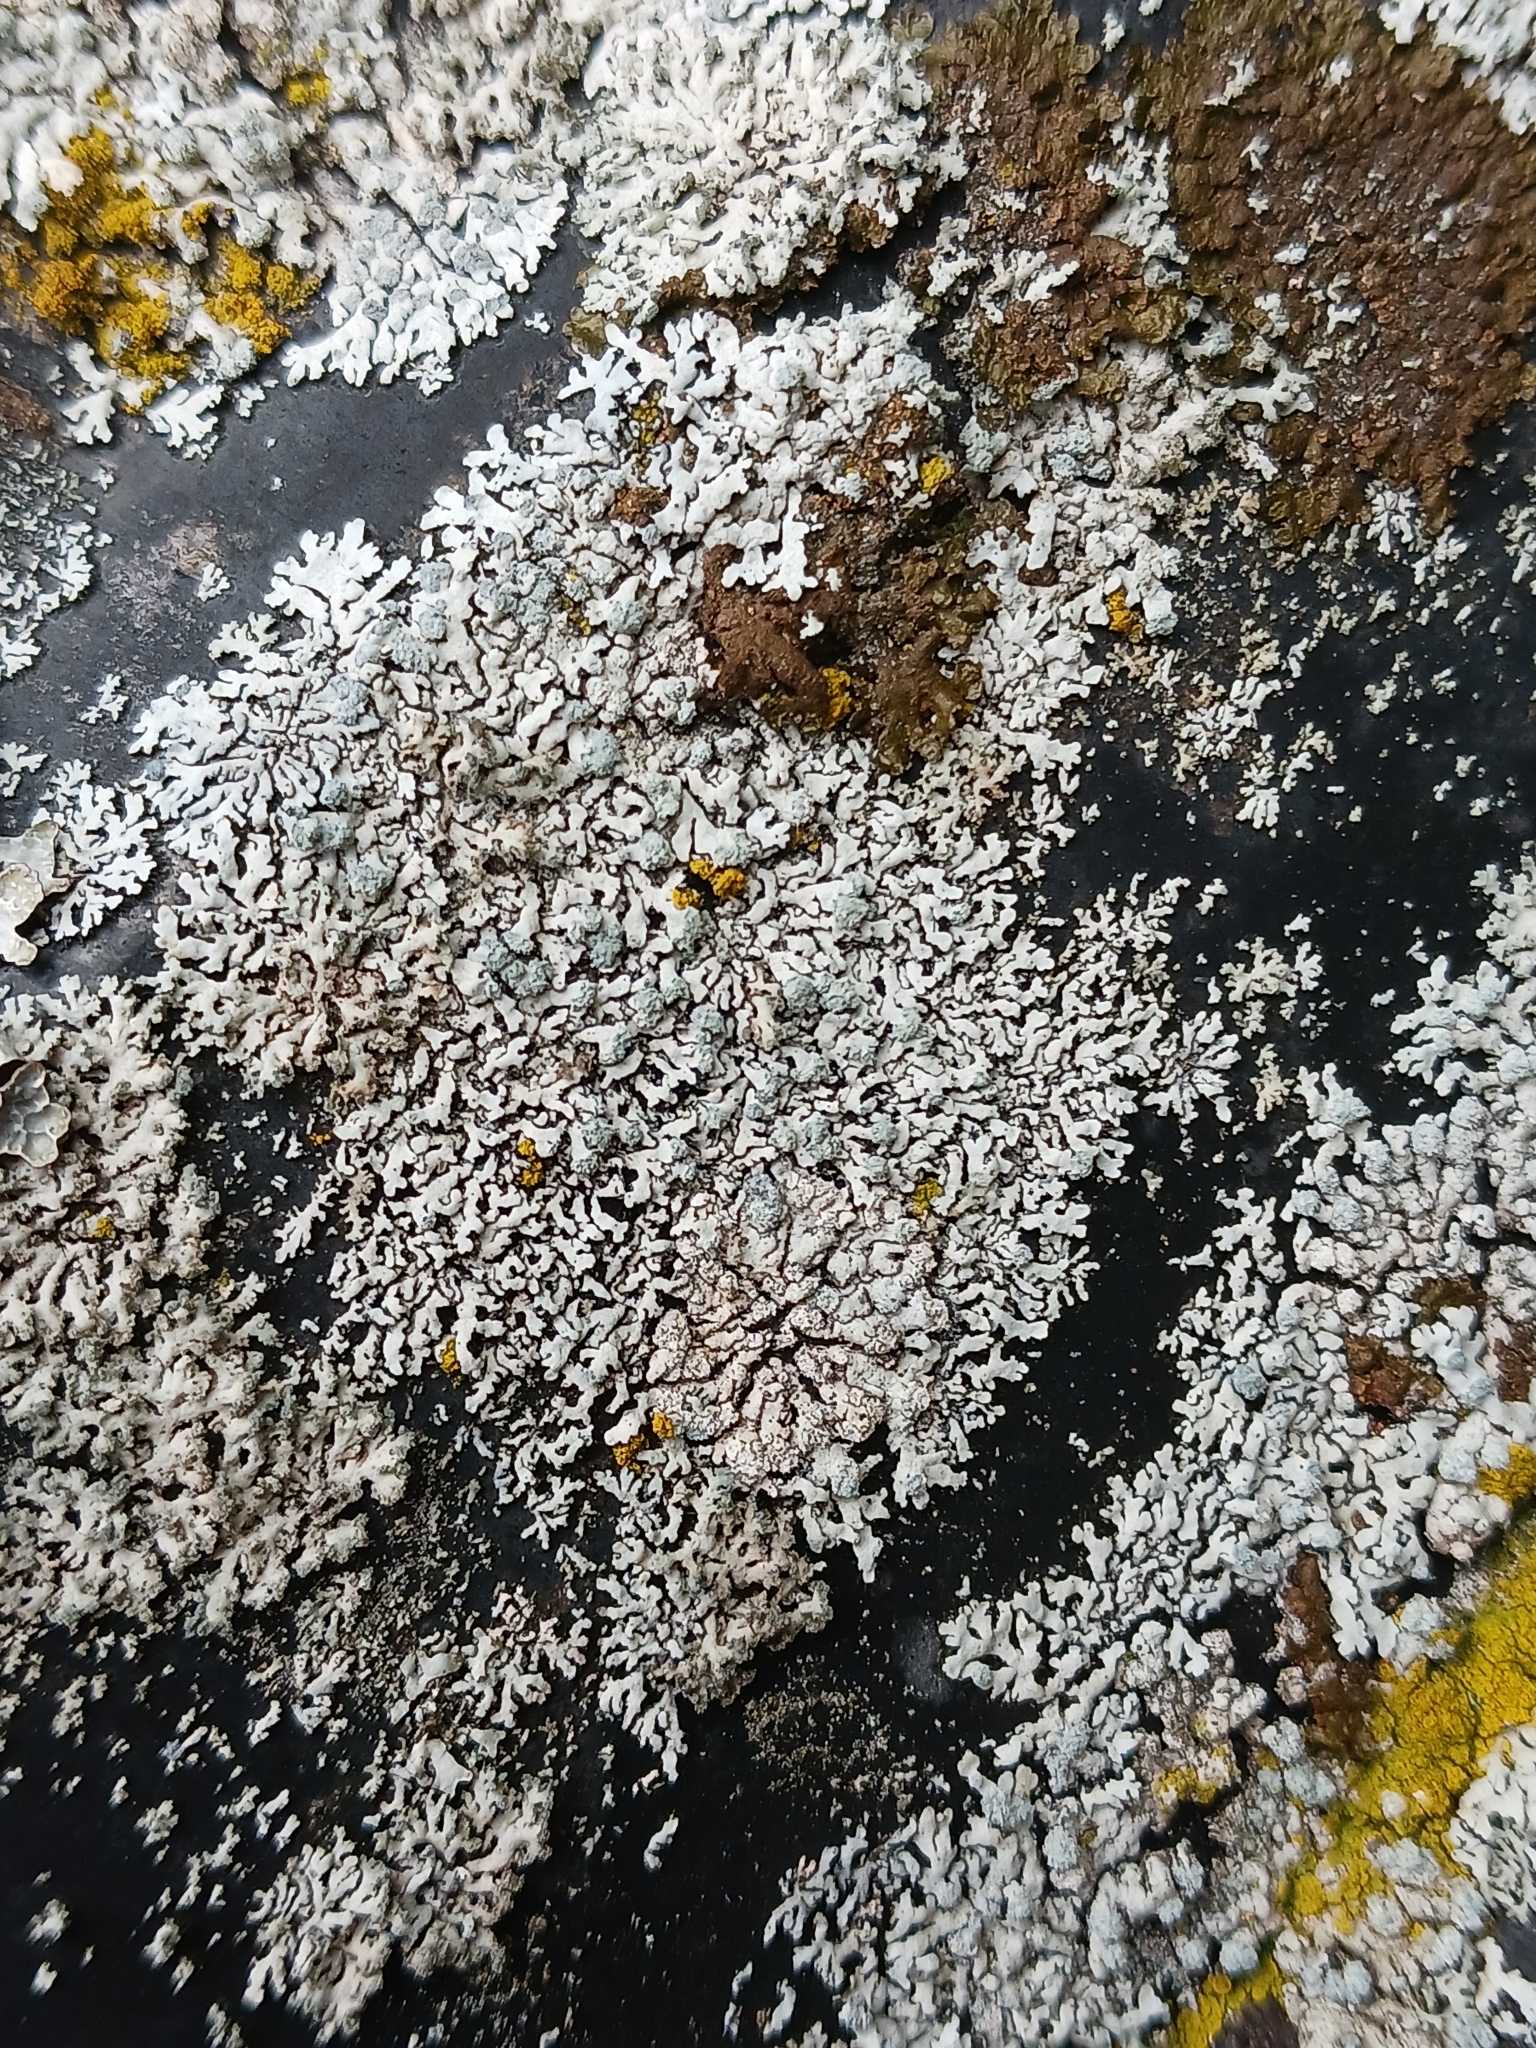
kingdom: Fungi
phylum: Ascomycota
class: Lecanoromycetes
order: Caliciales
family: Physciaceae
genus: Physcia
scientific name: Physcia caesia
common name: Blue-gray rosette lichen
